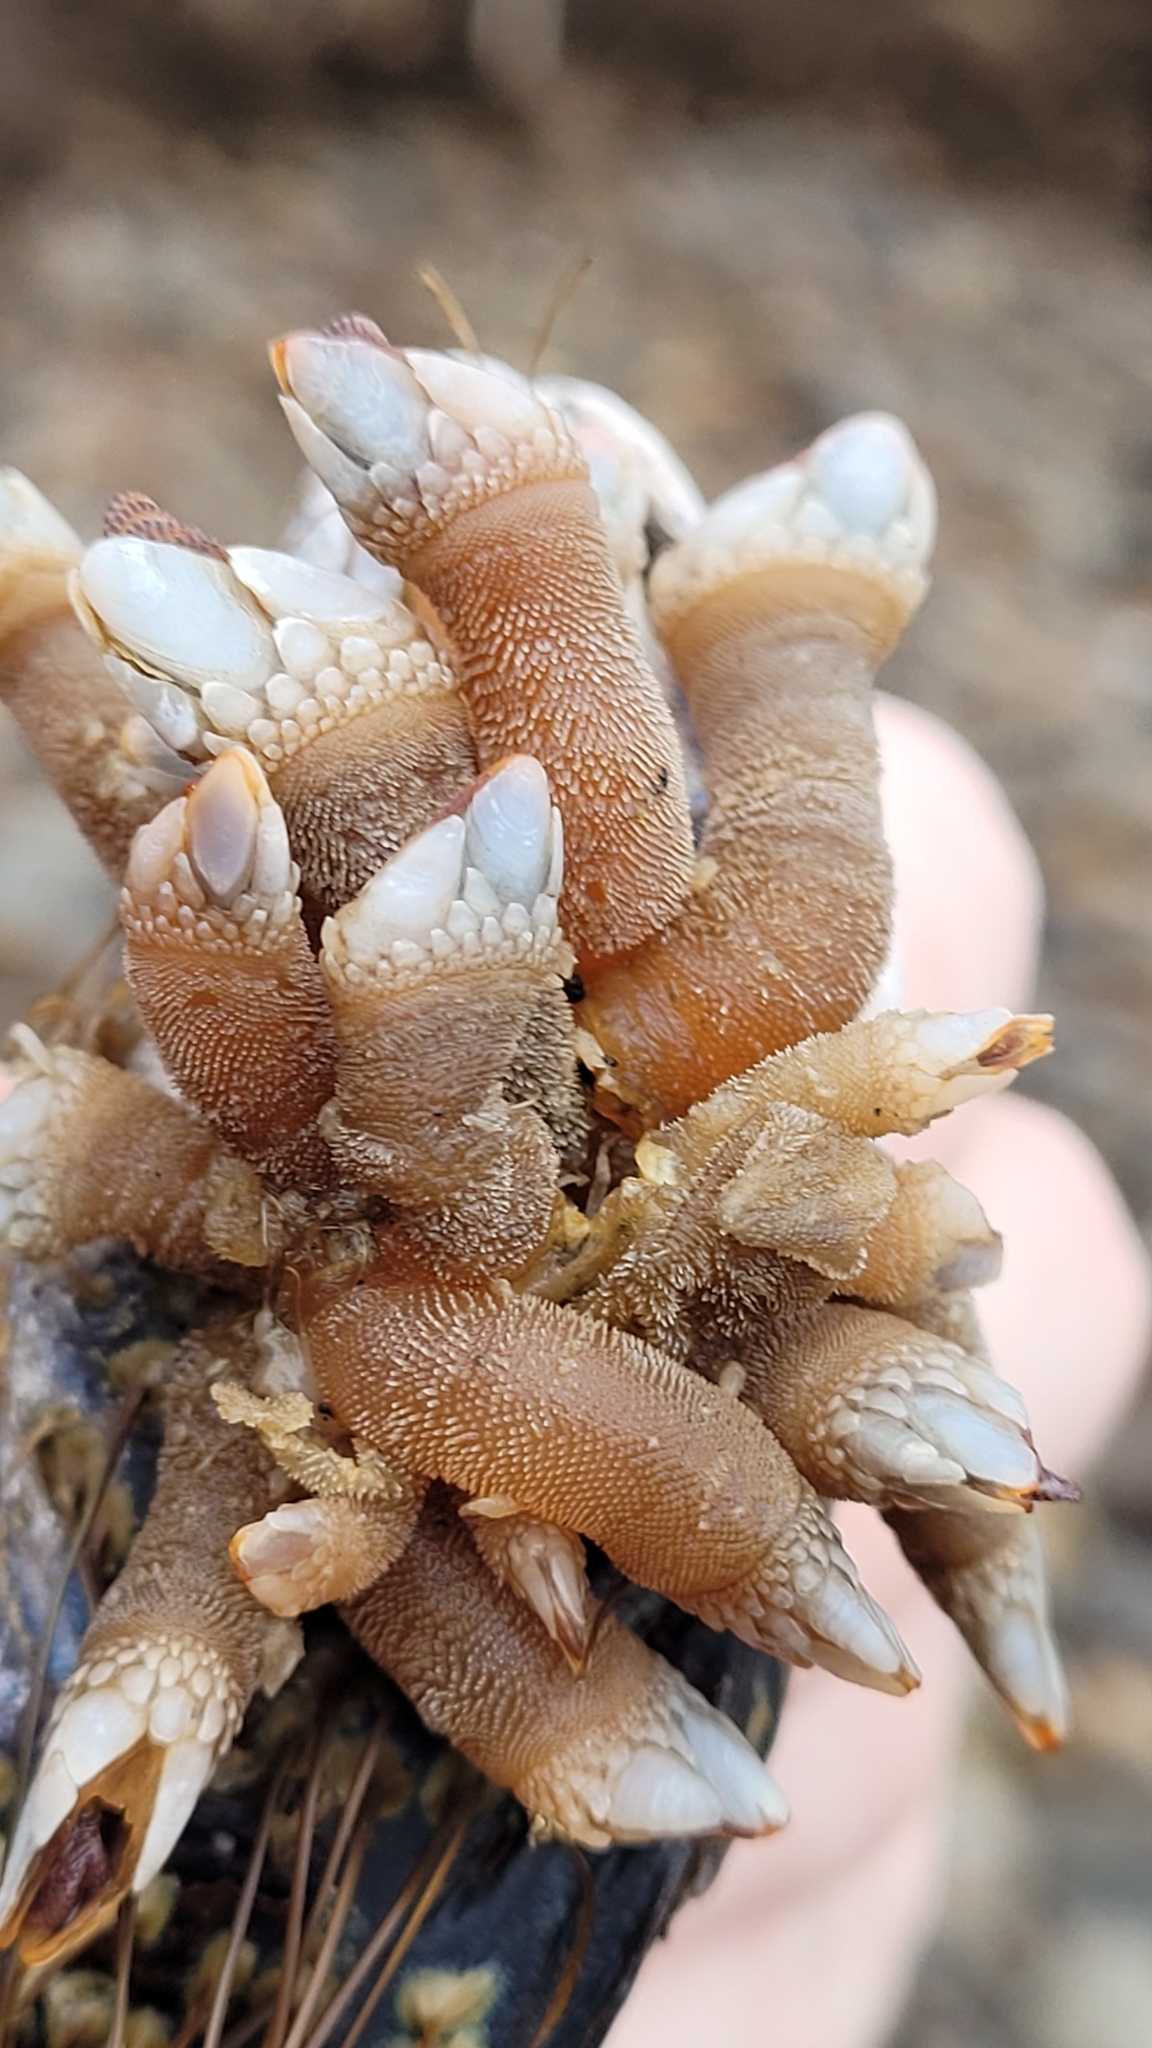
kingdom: Animalia
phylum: Arthropoda
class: Maxillopoda
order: Pedunculata
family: Pollicipedidae
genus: Pollicipes
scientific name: Pollicipes polymerus
